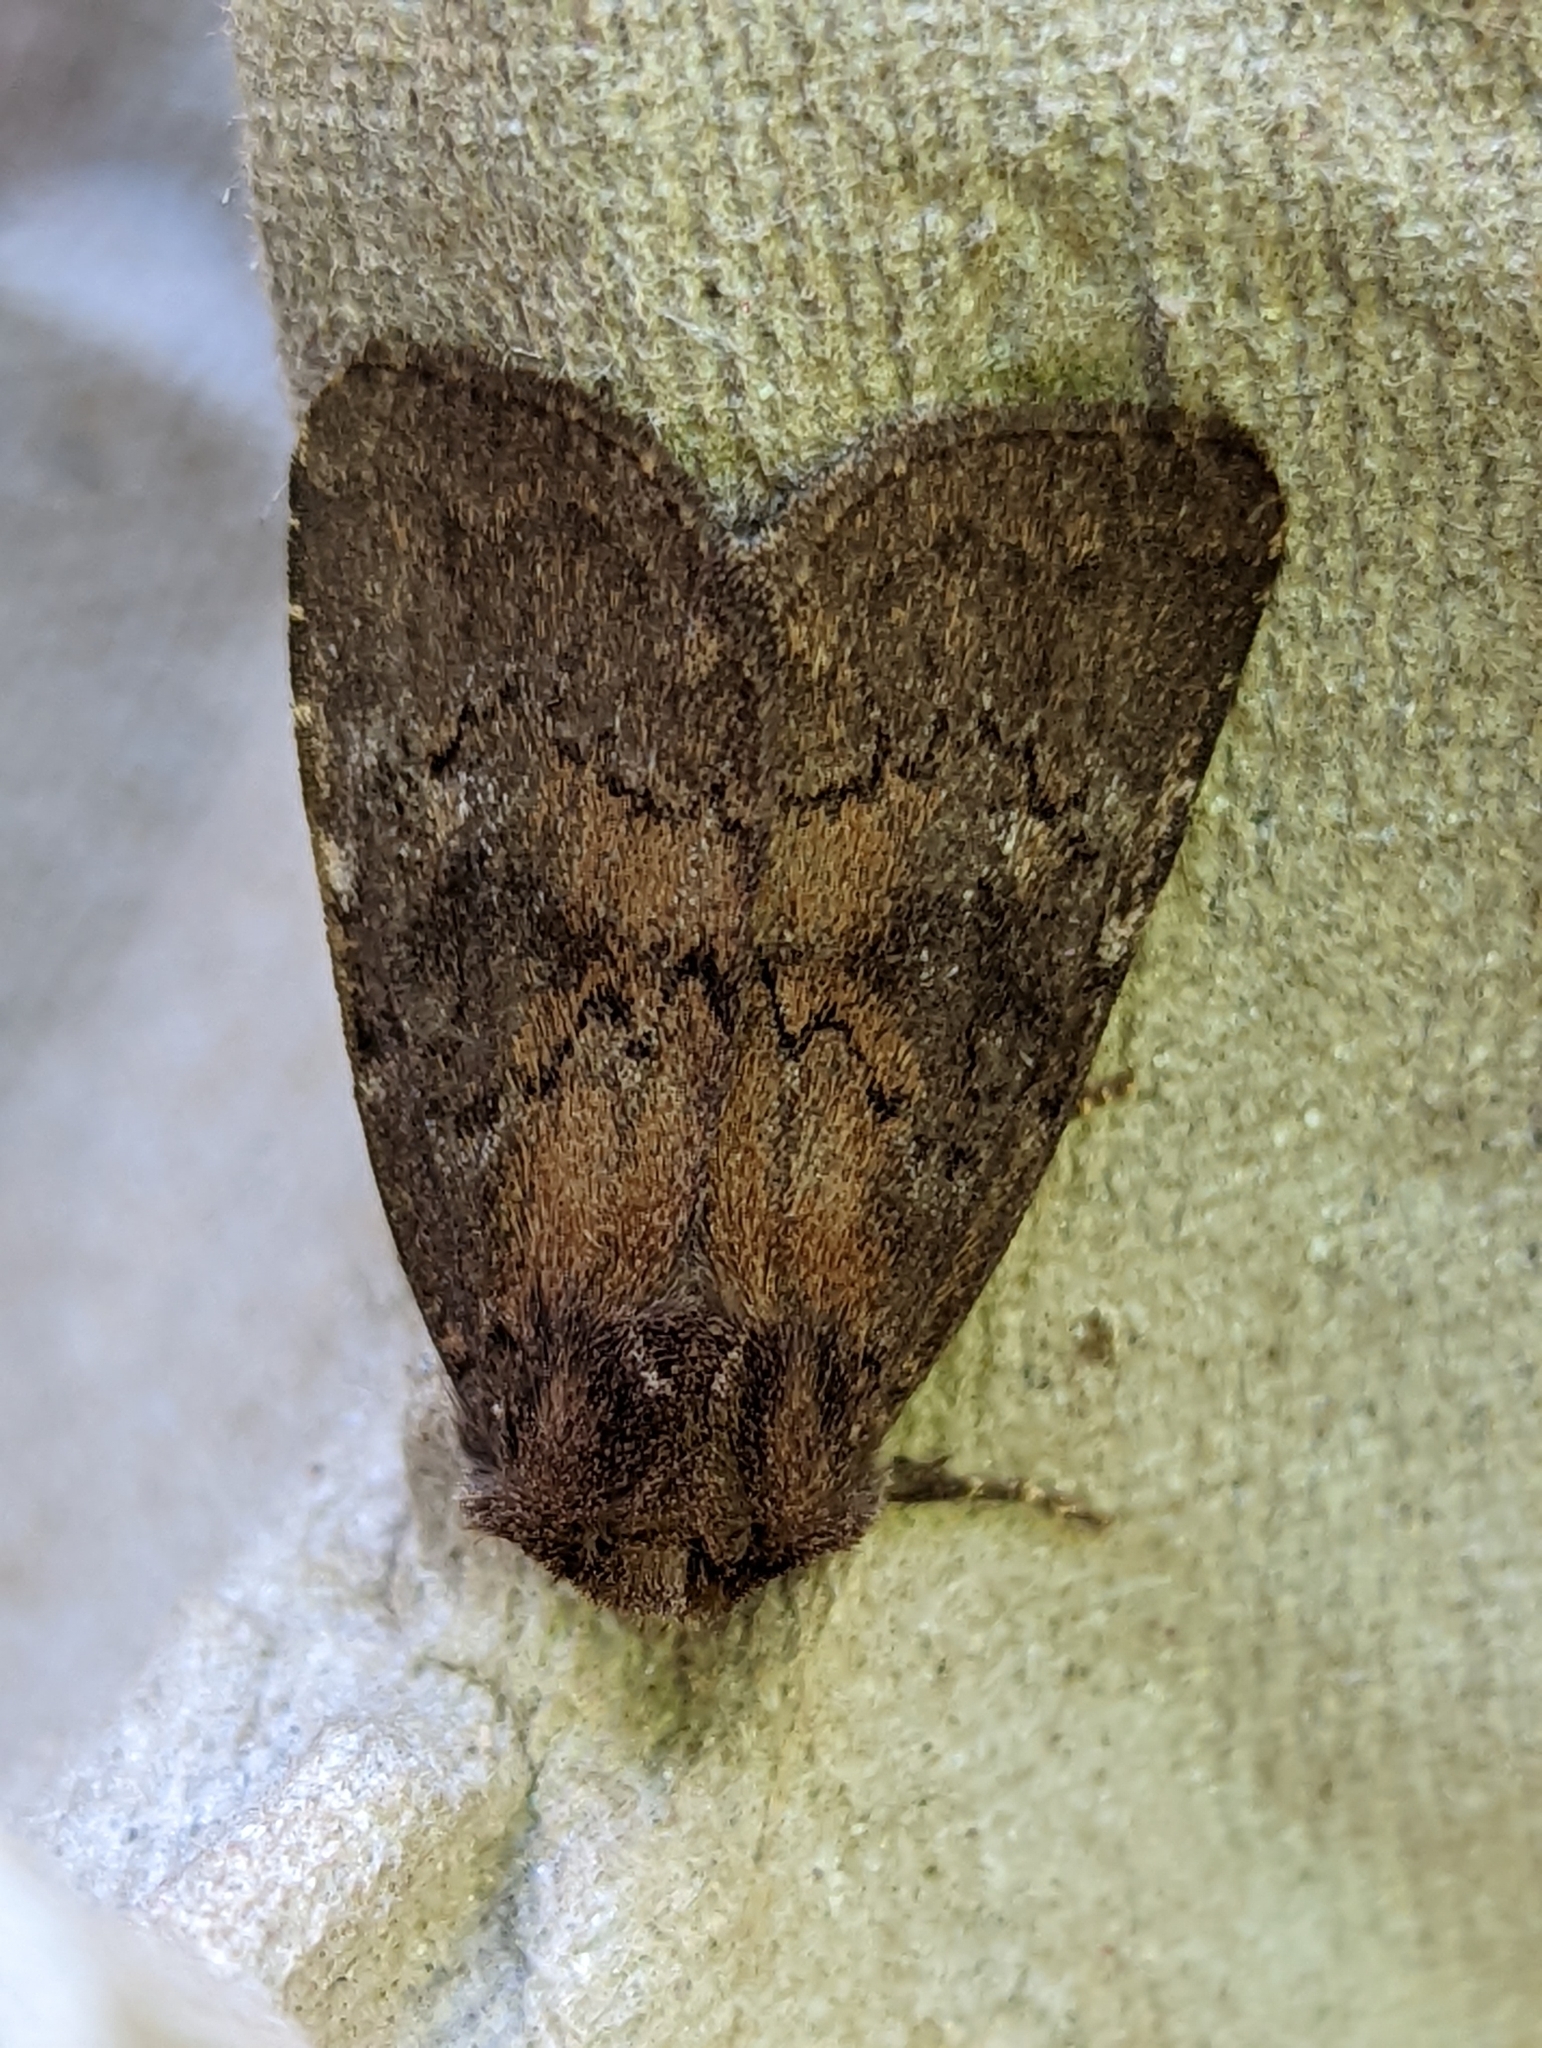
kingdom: Animalia
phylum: Arthropoda
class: Insecta
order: Lepidoptera
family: Noctuidae
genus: Charanyca
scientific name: Charanyca ferruginea
